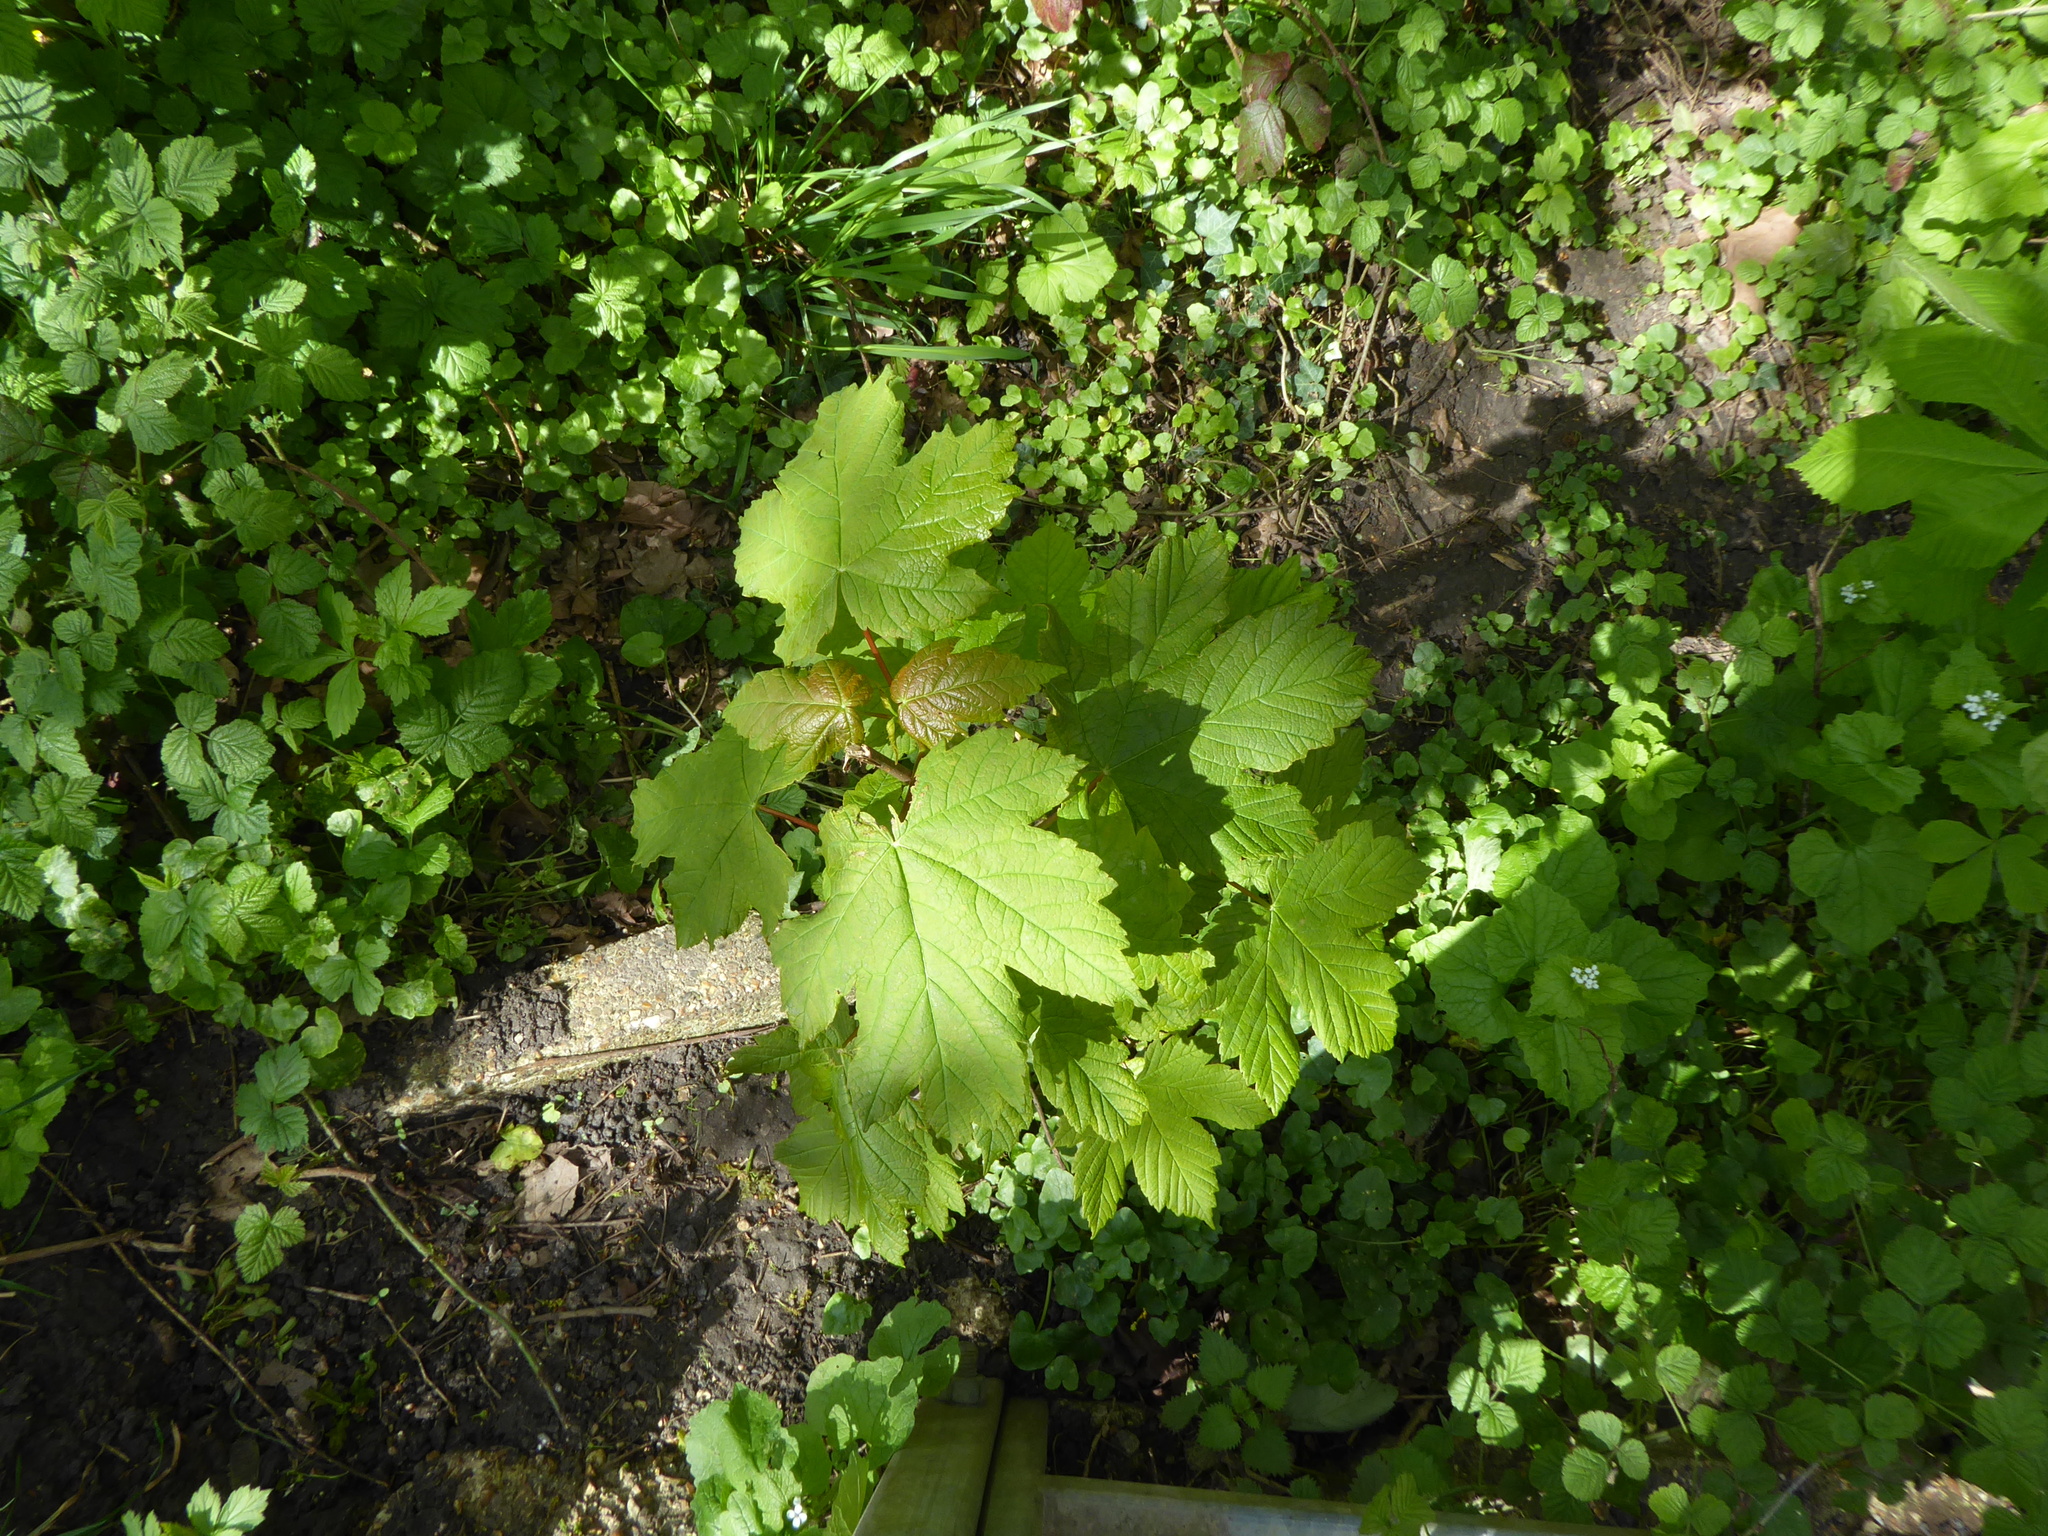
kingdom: Plantae
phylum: Tracheophyta
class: Magnoliopsida
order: Sapindales
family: Sapindaceae
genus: Acer
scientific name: Acer pseudoplatanus
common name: Sycamore
